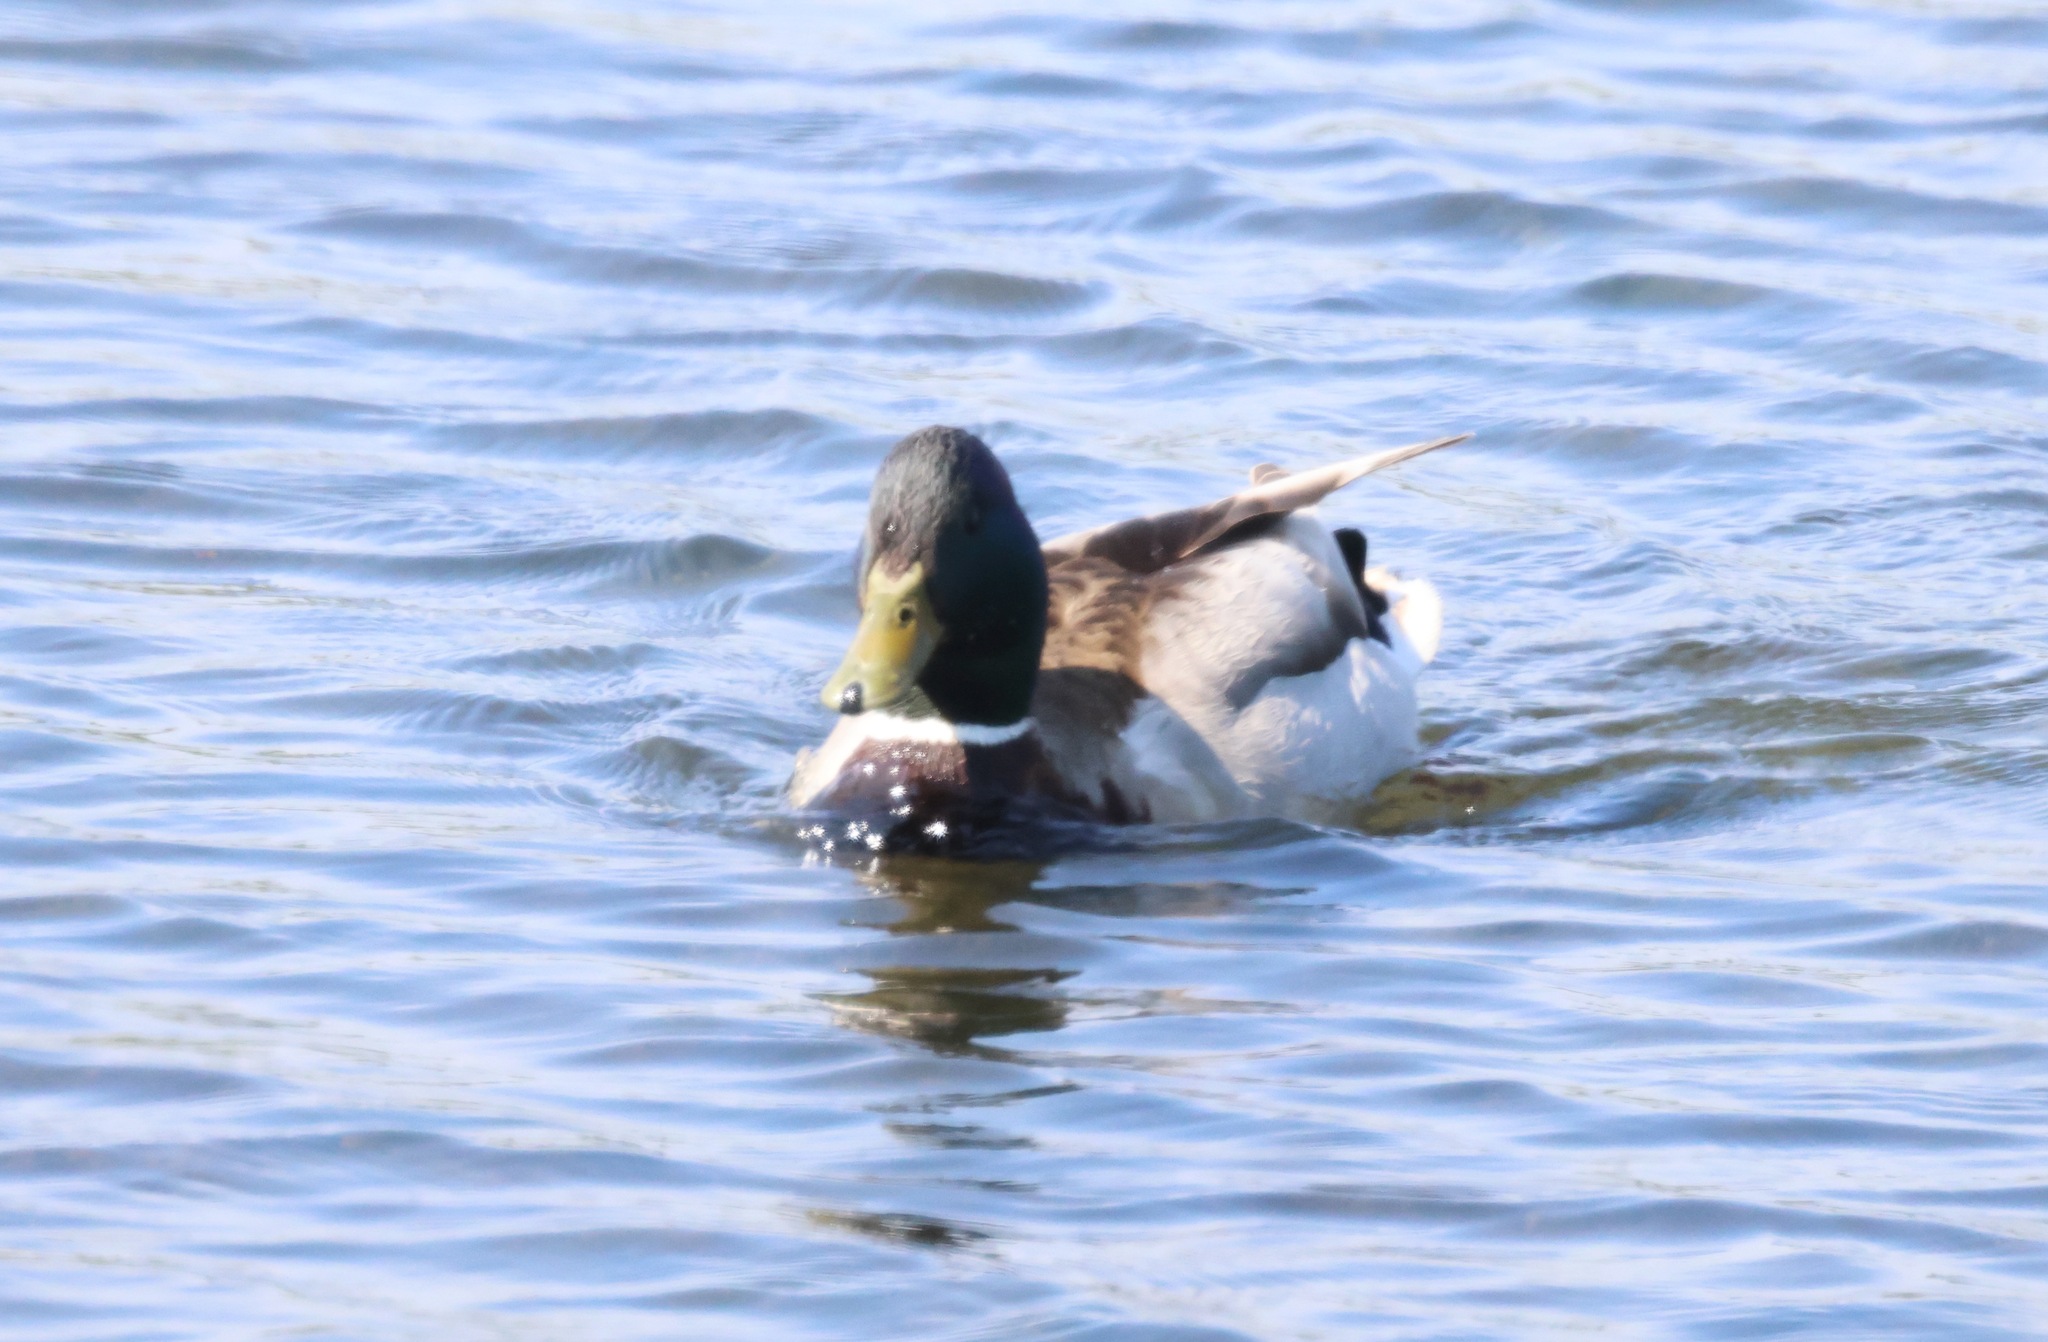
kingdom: Animalia
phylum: Chordata
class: Aves
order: Anseriformes
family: Anatidae
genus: Anas
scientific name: Anas platyrhynchos
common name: Mallard
